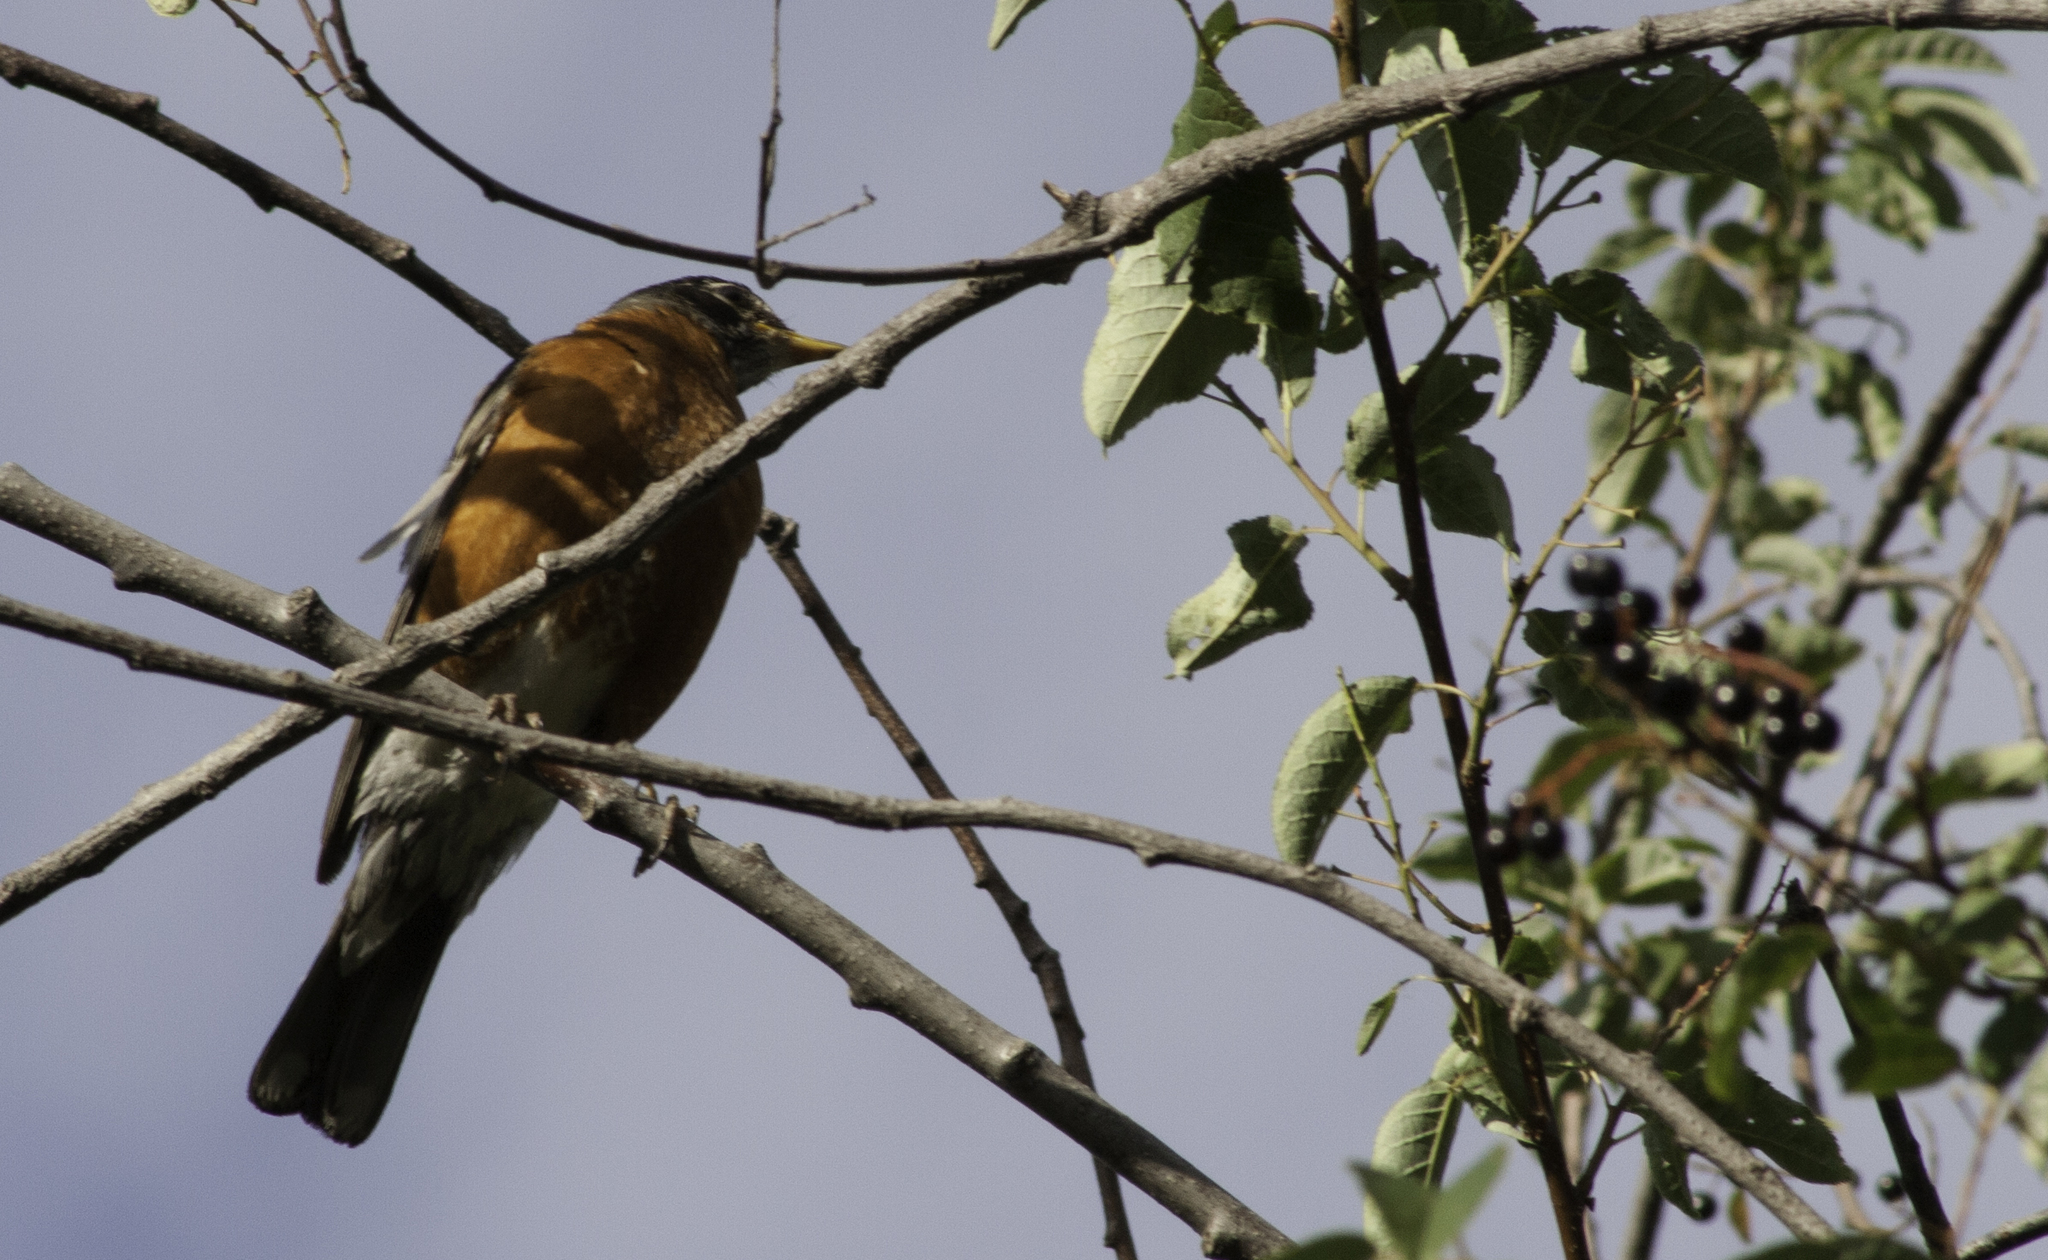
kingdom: Animalia
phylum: Chordata
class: Aves
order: Passeriformes
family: Turdidae
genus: Turdus
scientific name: Turdus migratorius
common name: American robin
